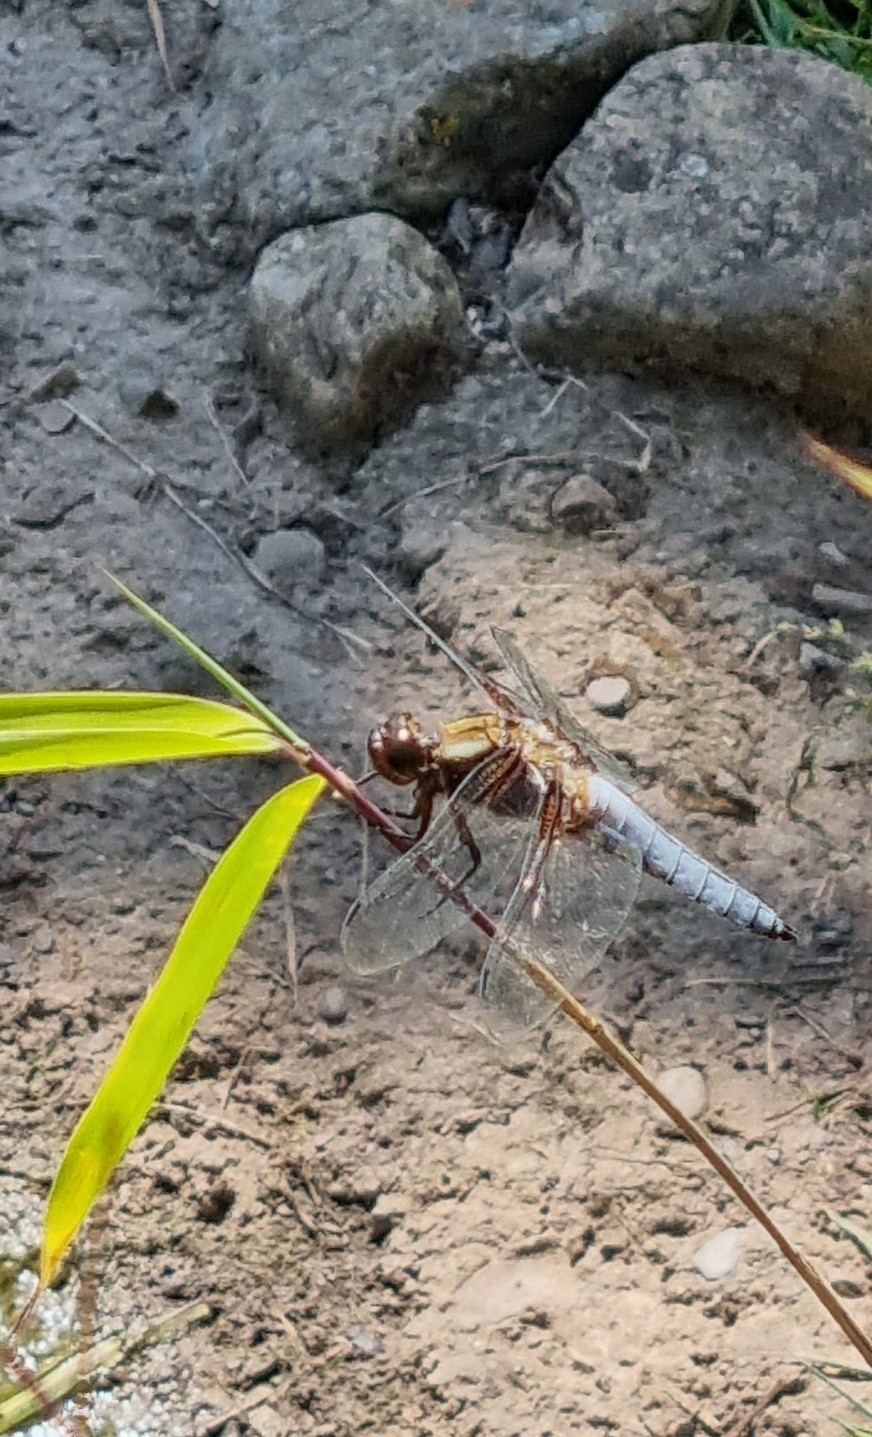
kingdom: Animalia
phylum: Arthropoda
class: Insecta
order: Odonata
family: Libellulidae
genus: Libellula
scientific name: Libellula depressa
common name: Broad-bodied chaser
